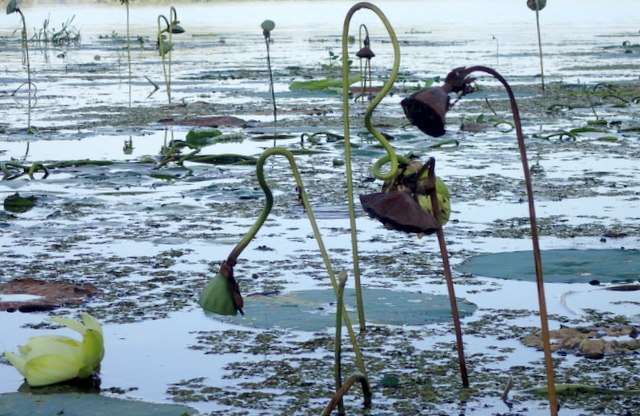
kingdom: Plantae
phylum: Tracheophyta
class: Magnoliopsida
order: Proteales
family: Nelumbonaceae
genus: Nelumbo
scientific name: Nelumbo lutea
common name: American lotus
